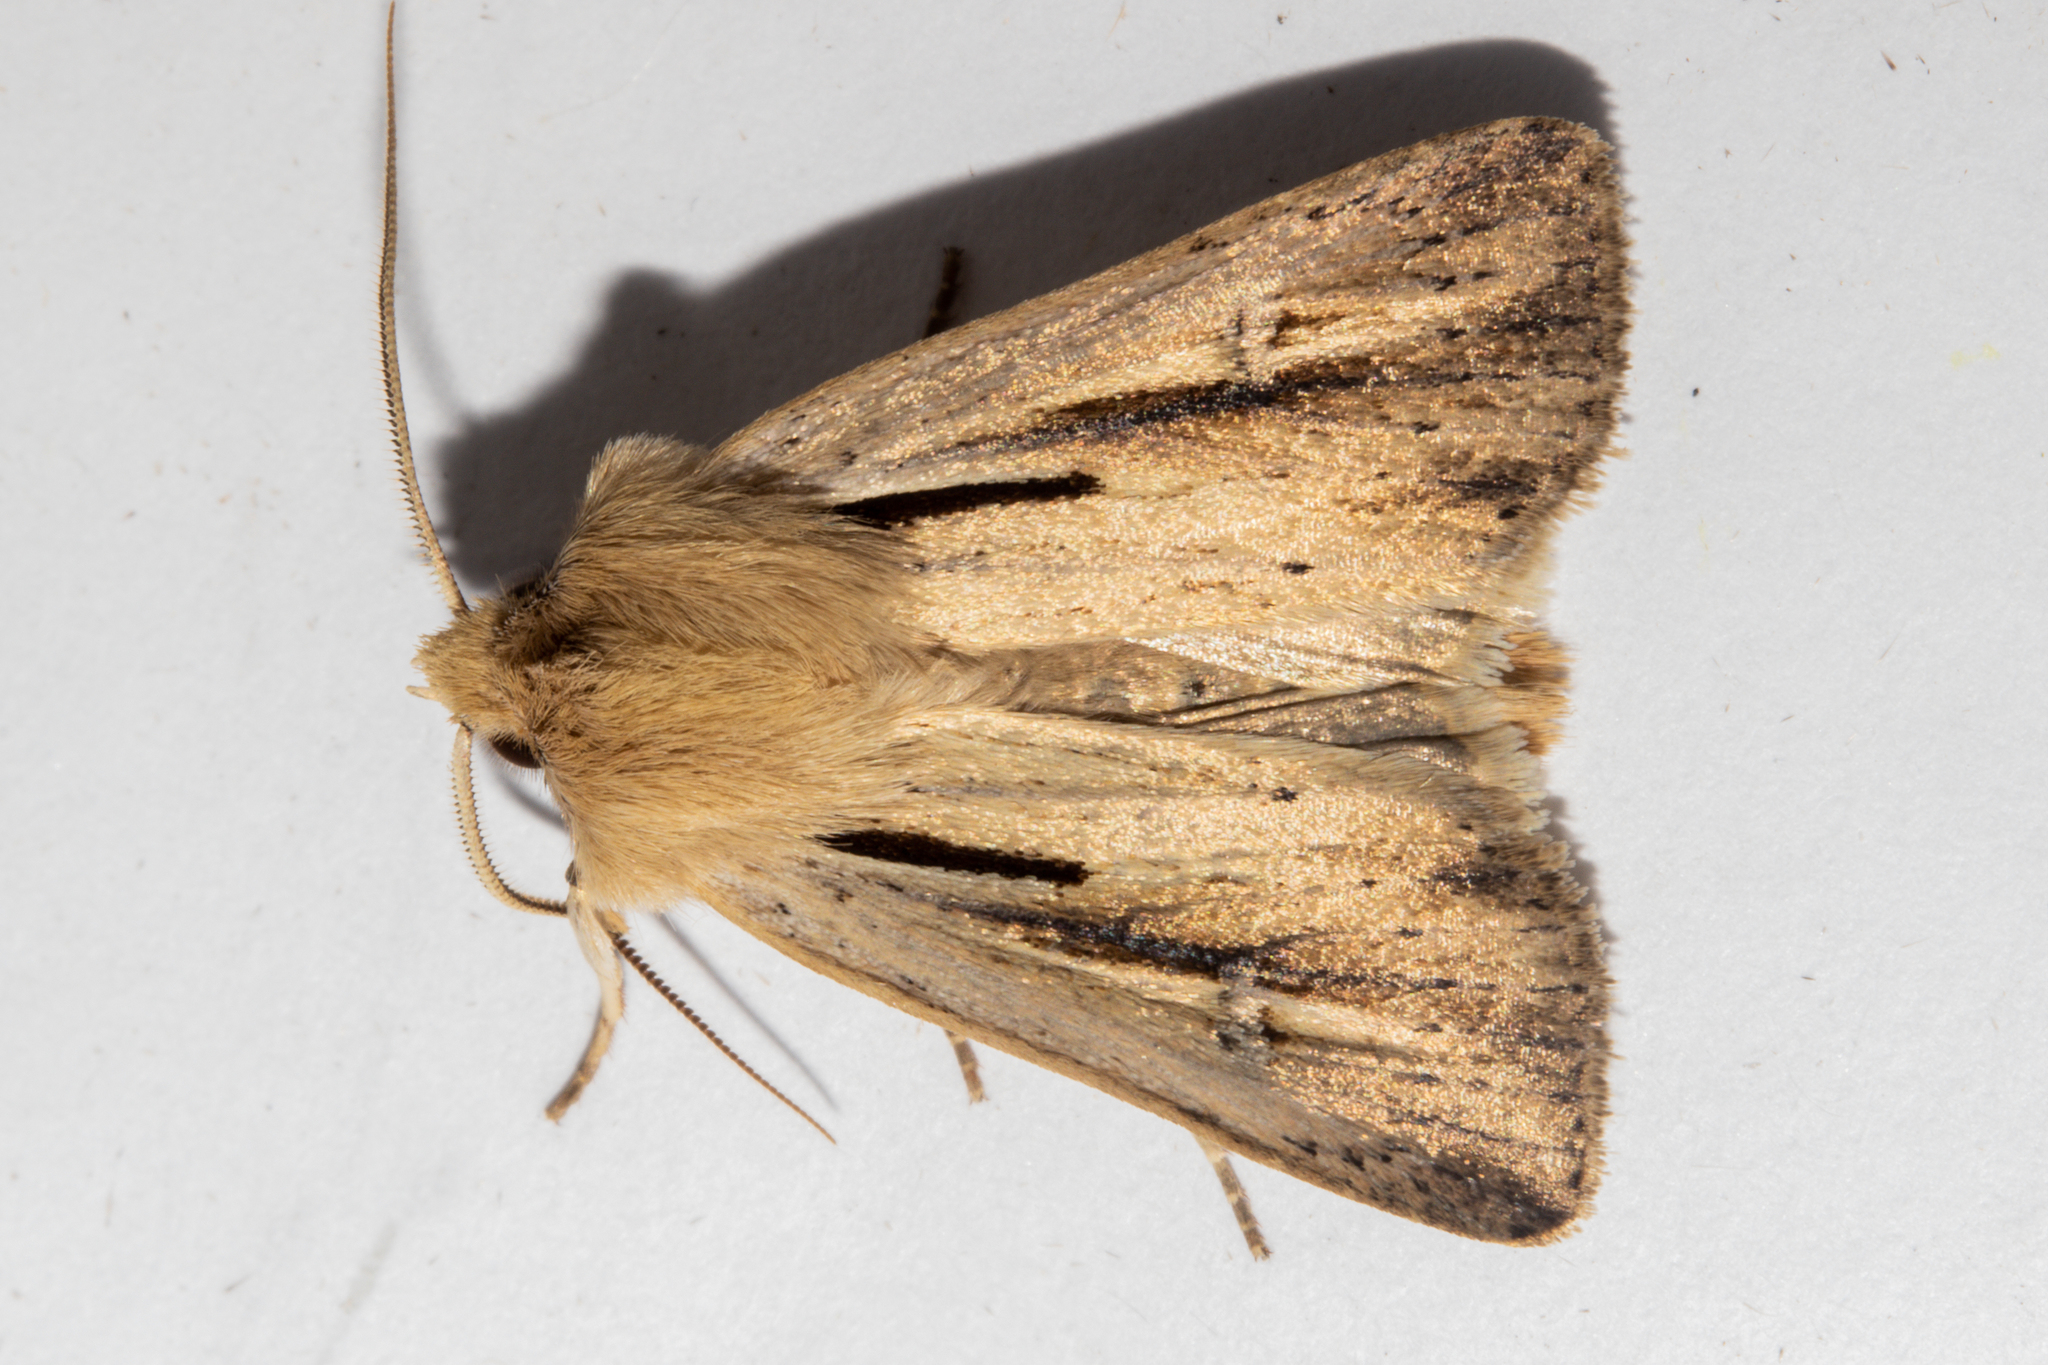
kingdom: Animalia
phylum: Arthropoda
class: Insecta
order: Lepidoptera
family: Noctuidae
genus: Ichneutica
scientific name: Ichneutica propria
